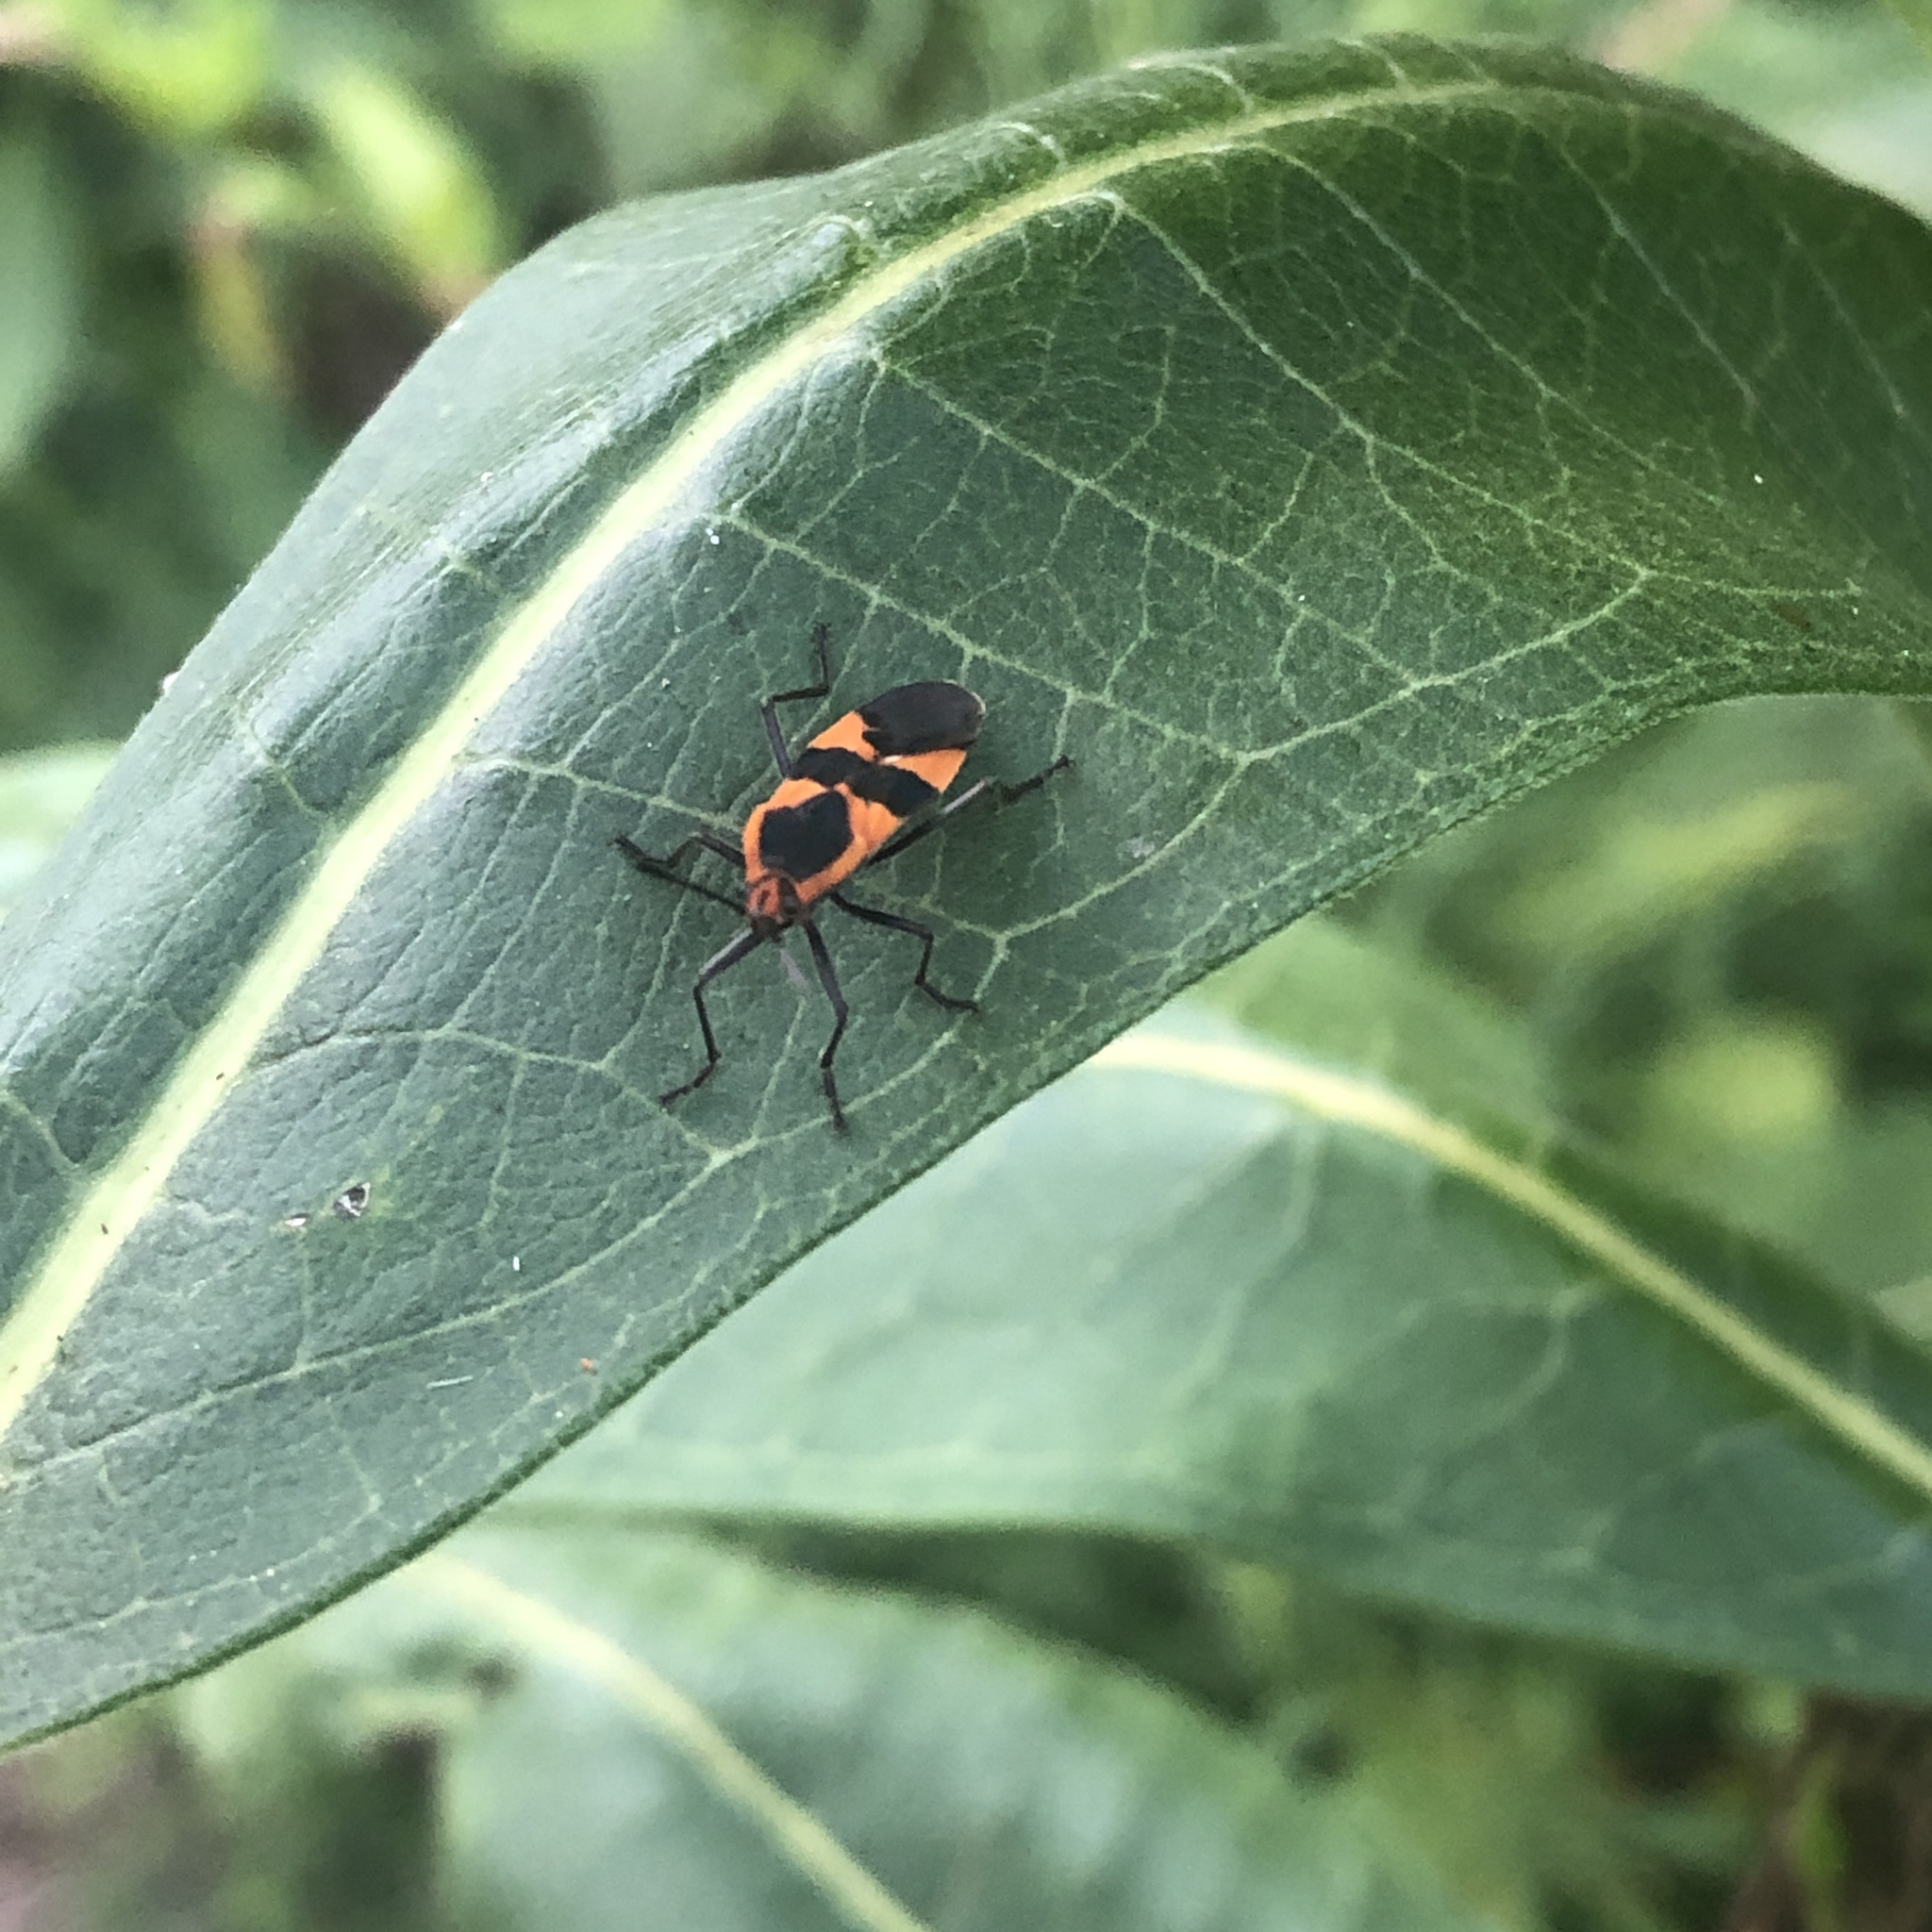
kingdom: Animalia
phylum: Arthropoda
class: Insecta
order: Hemiptera
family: Lygaeidae
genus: Oncopeltus
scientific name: Oncopeltus fasciatus
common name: Large milkweed bug
